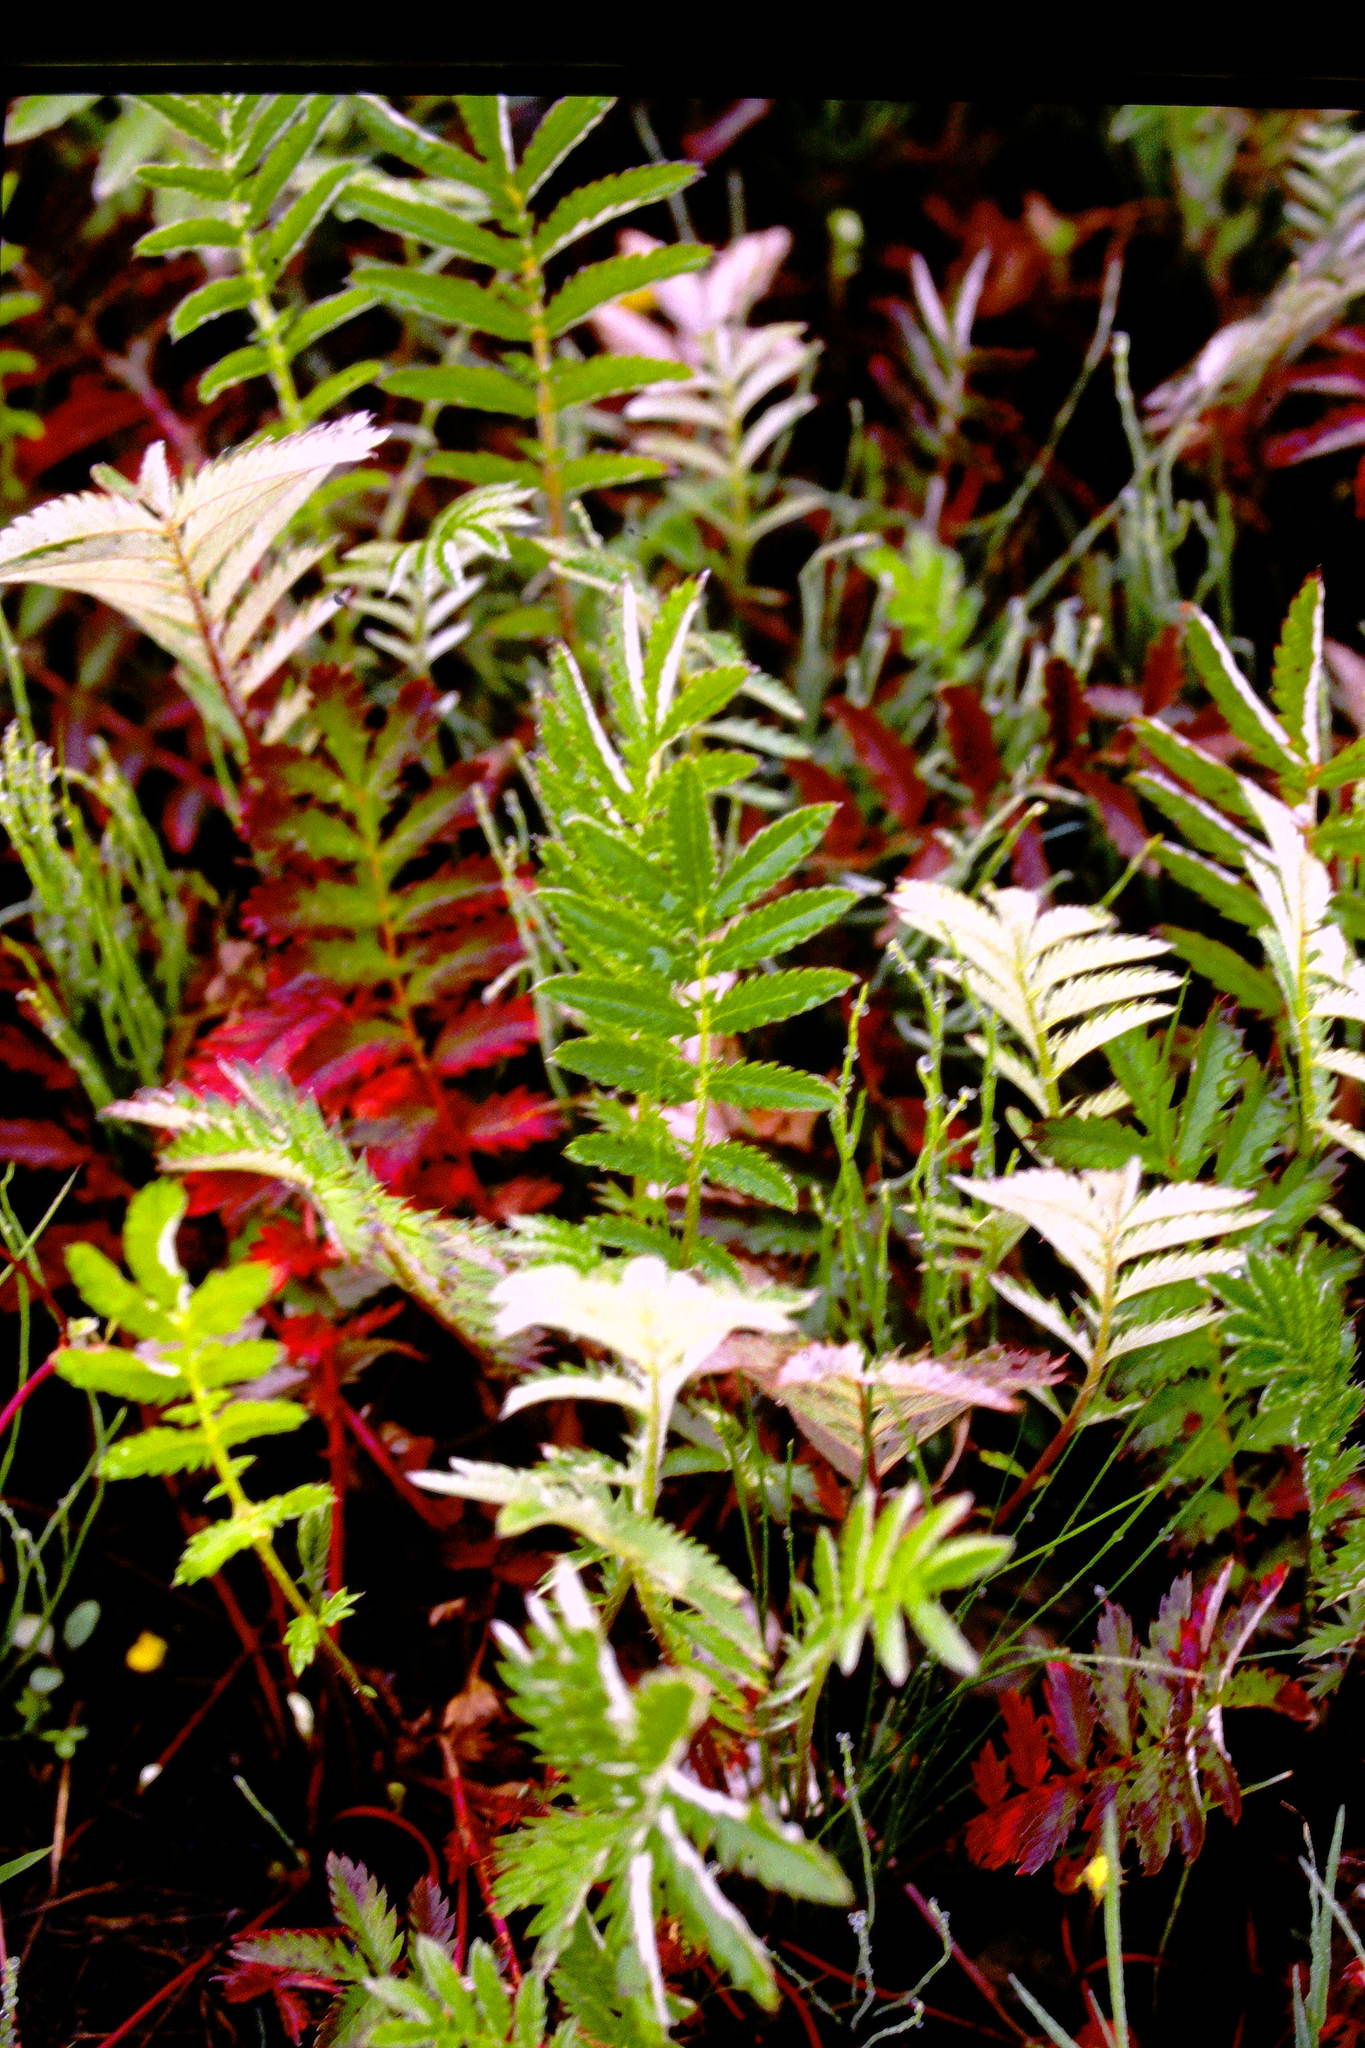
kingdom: Plantae
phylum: Tracheophyta
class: Magnoliopsida
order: Rosales
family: Rosaceae
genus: Argentina
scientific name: Argentina anserina
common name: Common silverweed
